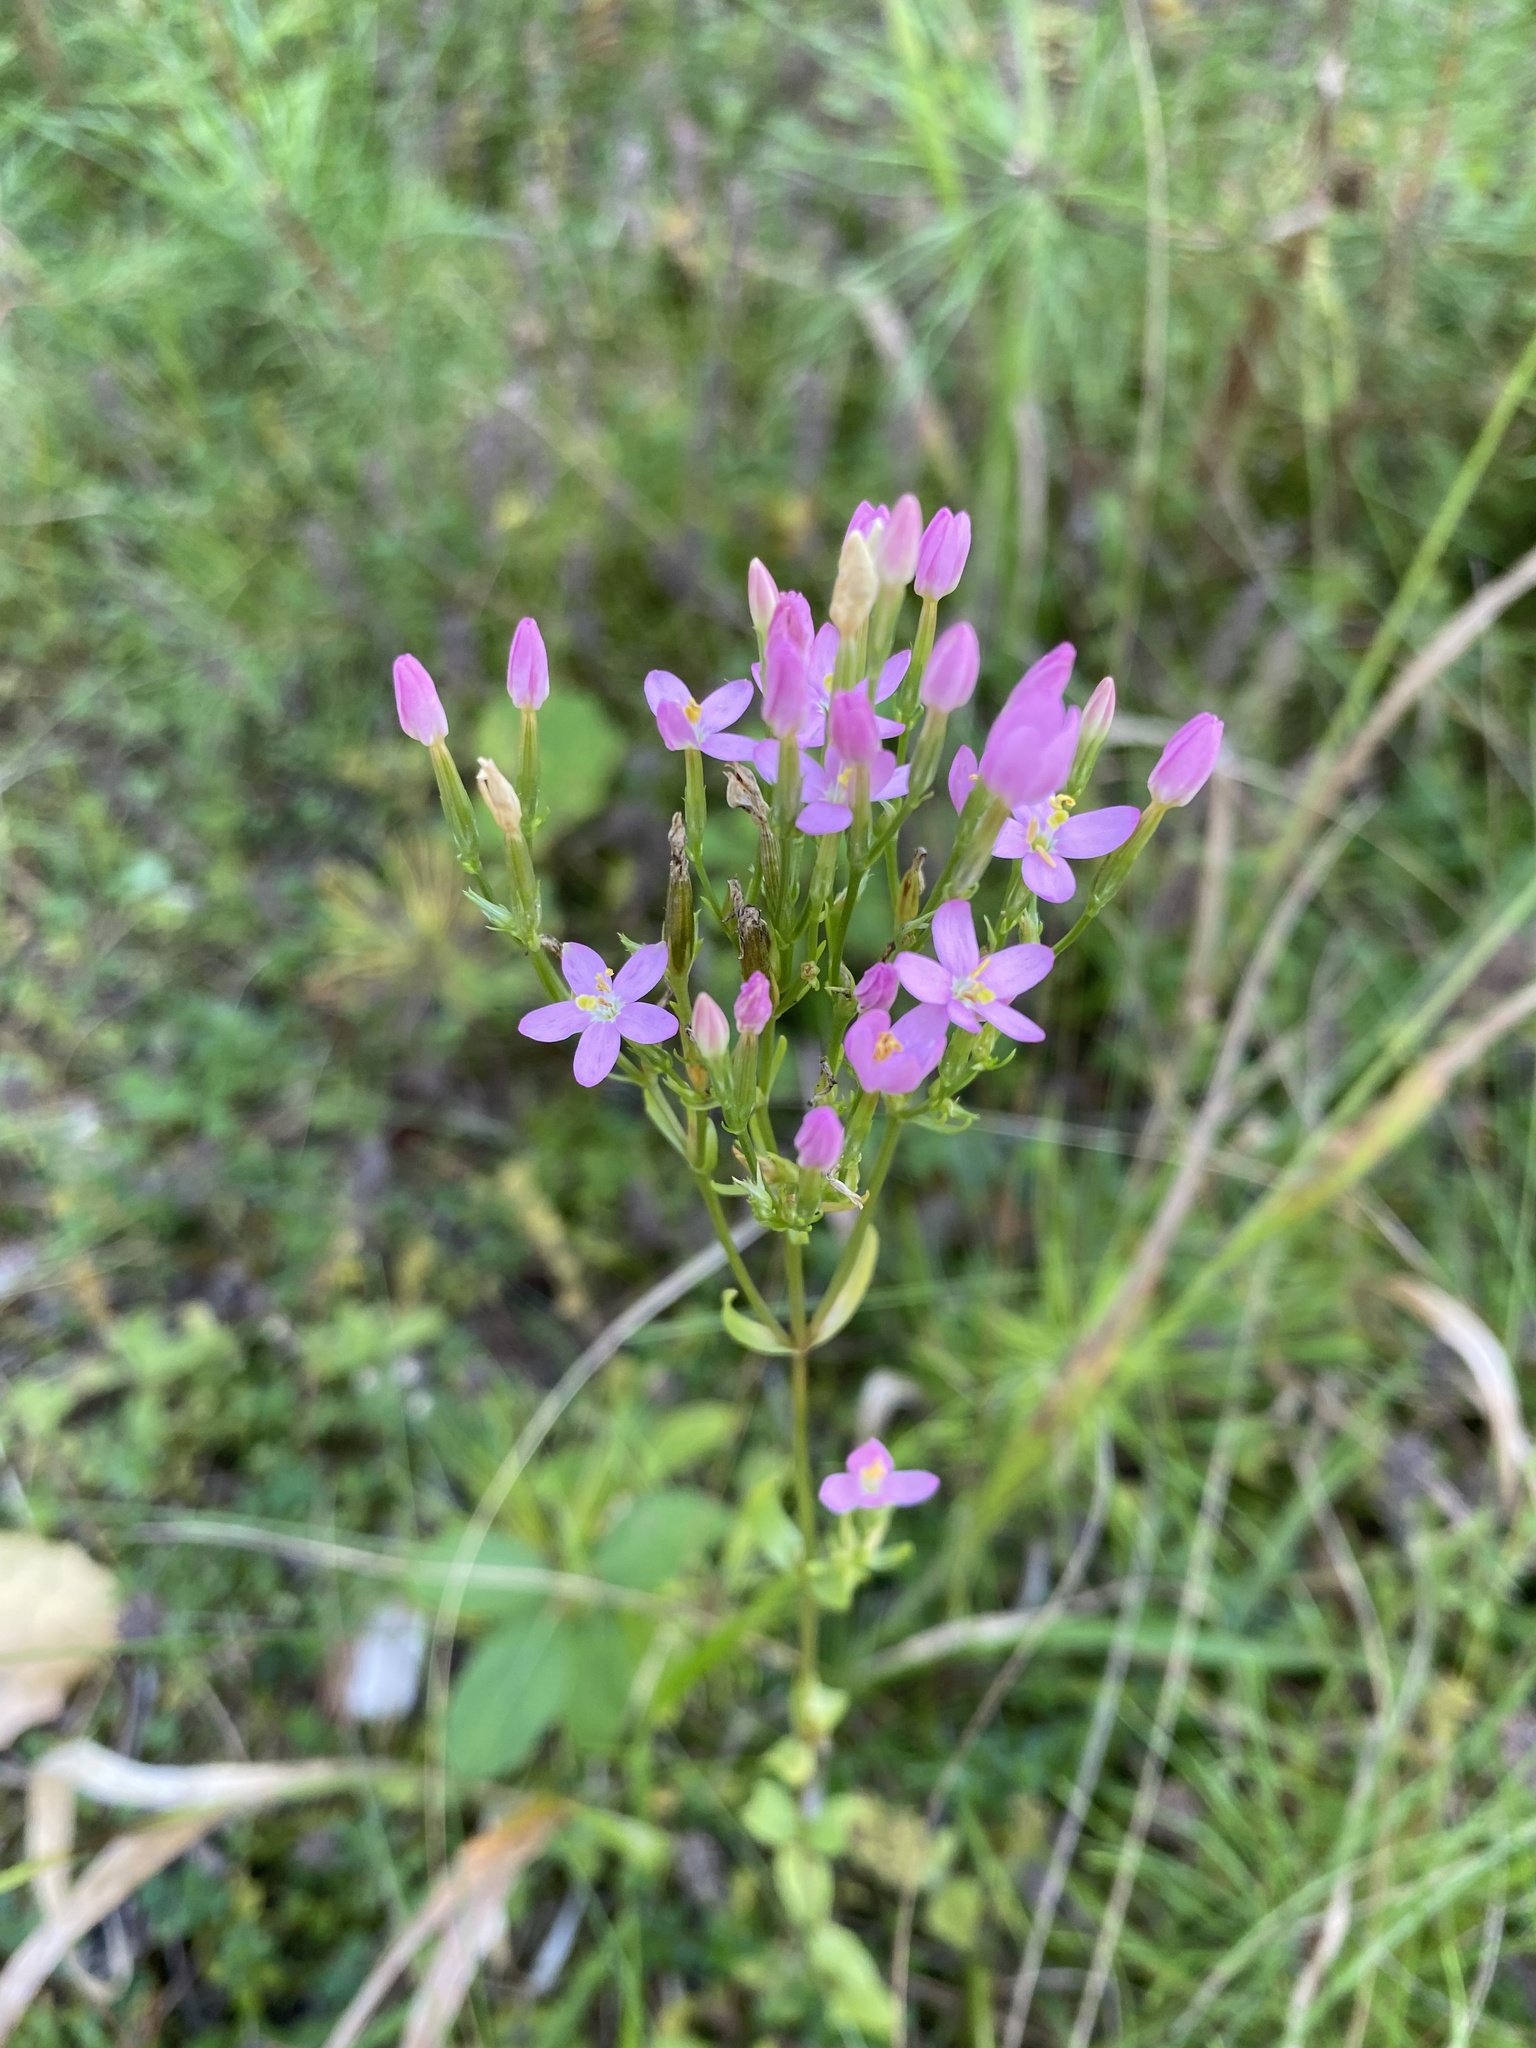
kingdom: Plantae
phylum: Tracheophyta
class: Magnoliopsida
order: Gentianales
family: Gentianaceae
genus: Centaurium
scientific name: Centaurium erythraea
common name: Common centaury
